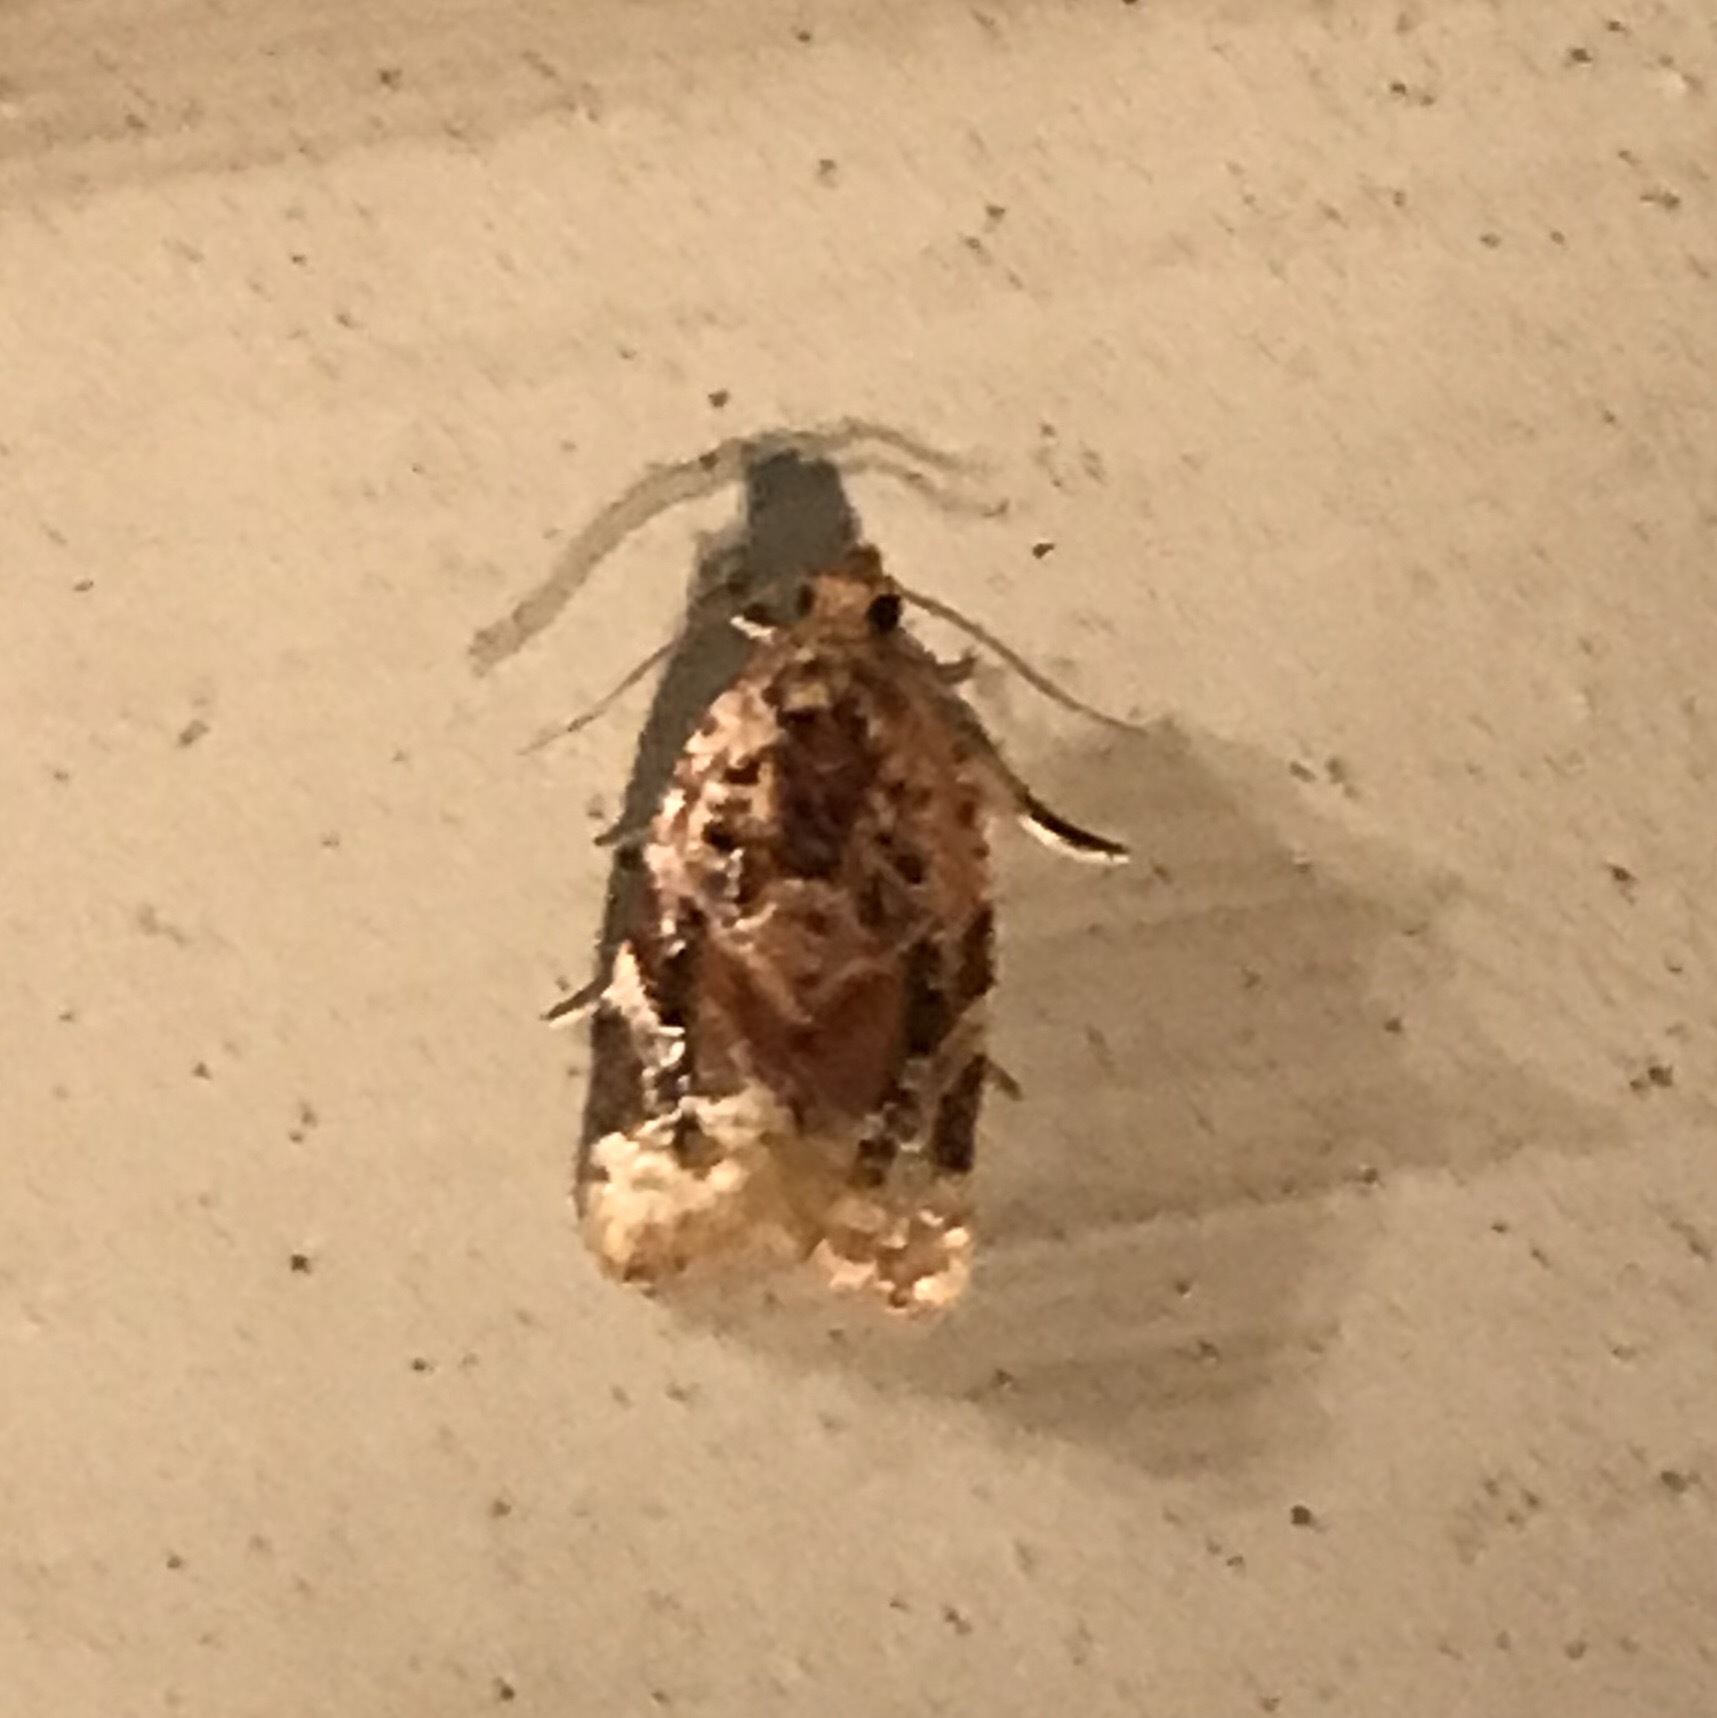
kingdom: Animalia
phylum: Arthropoda
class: Insecta
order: Lepidoptera
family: Tortricidae
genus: Argyrotaenia
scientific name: Argyrotaenia velutinana
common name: Red-banded leafroller moth
